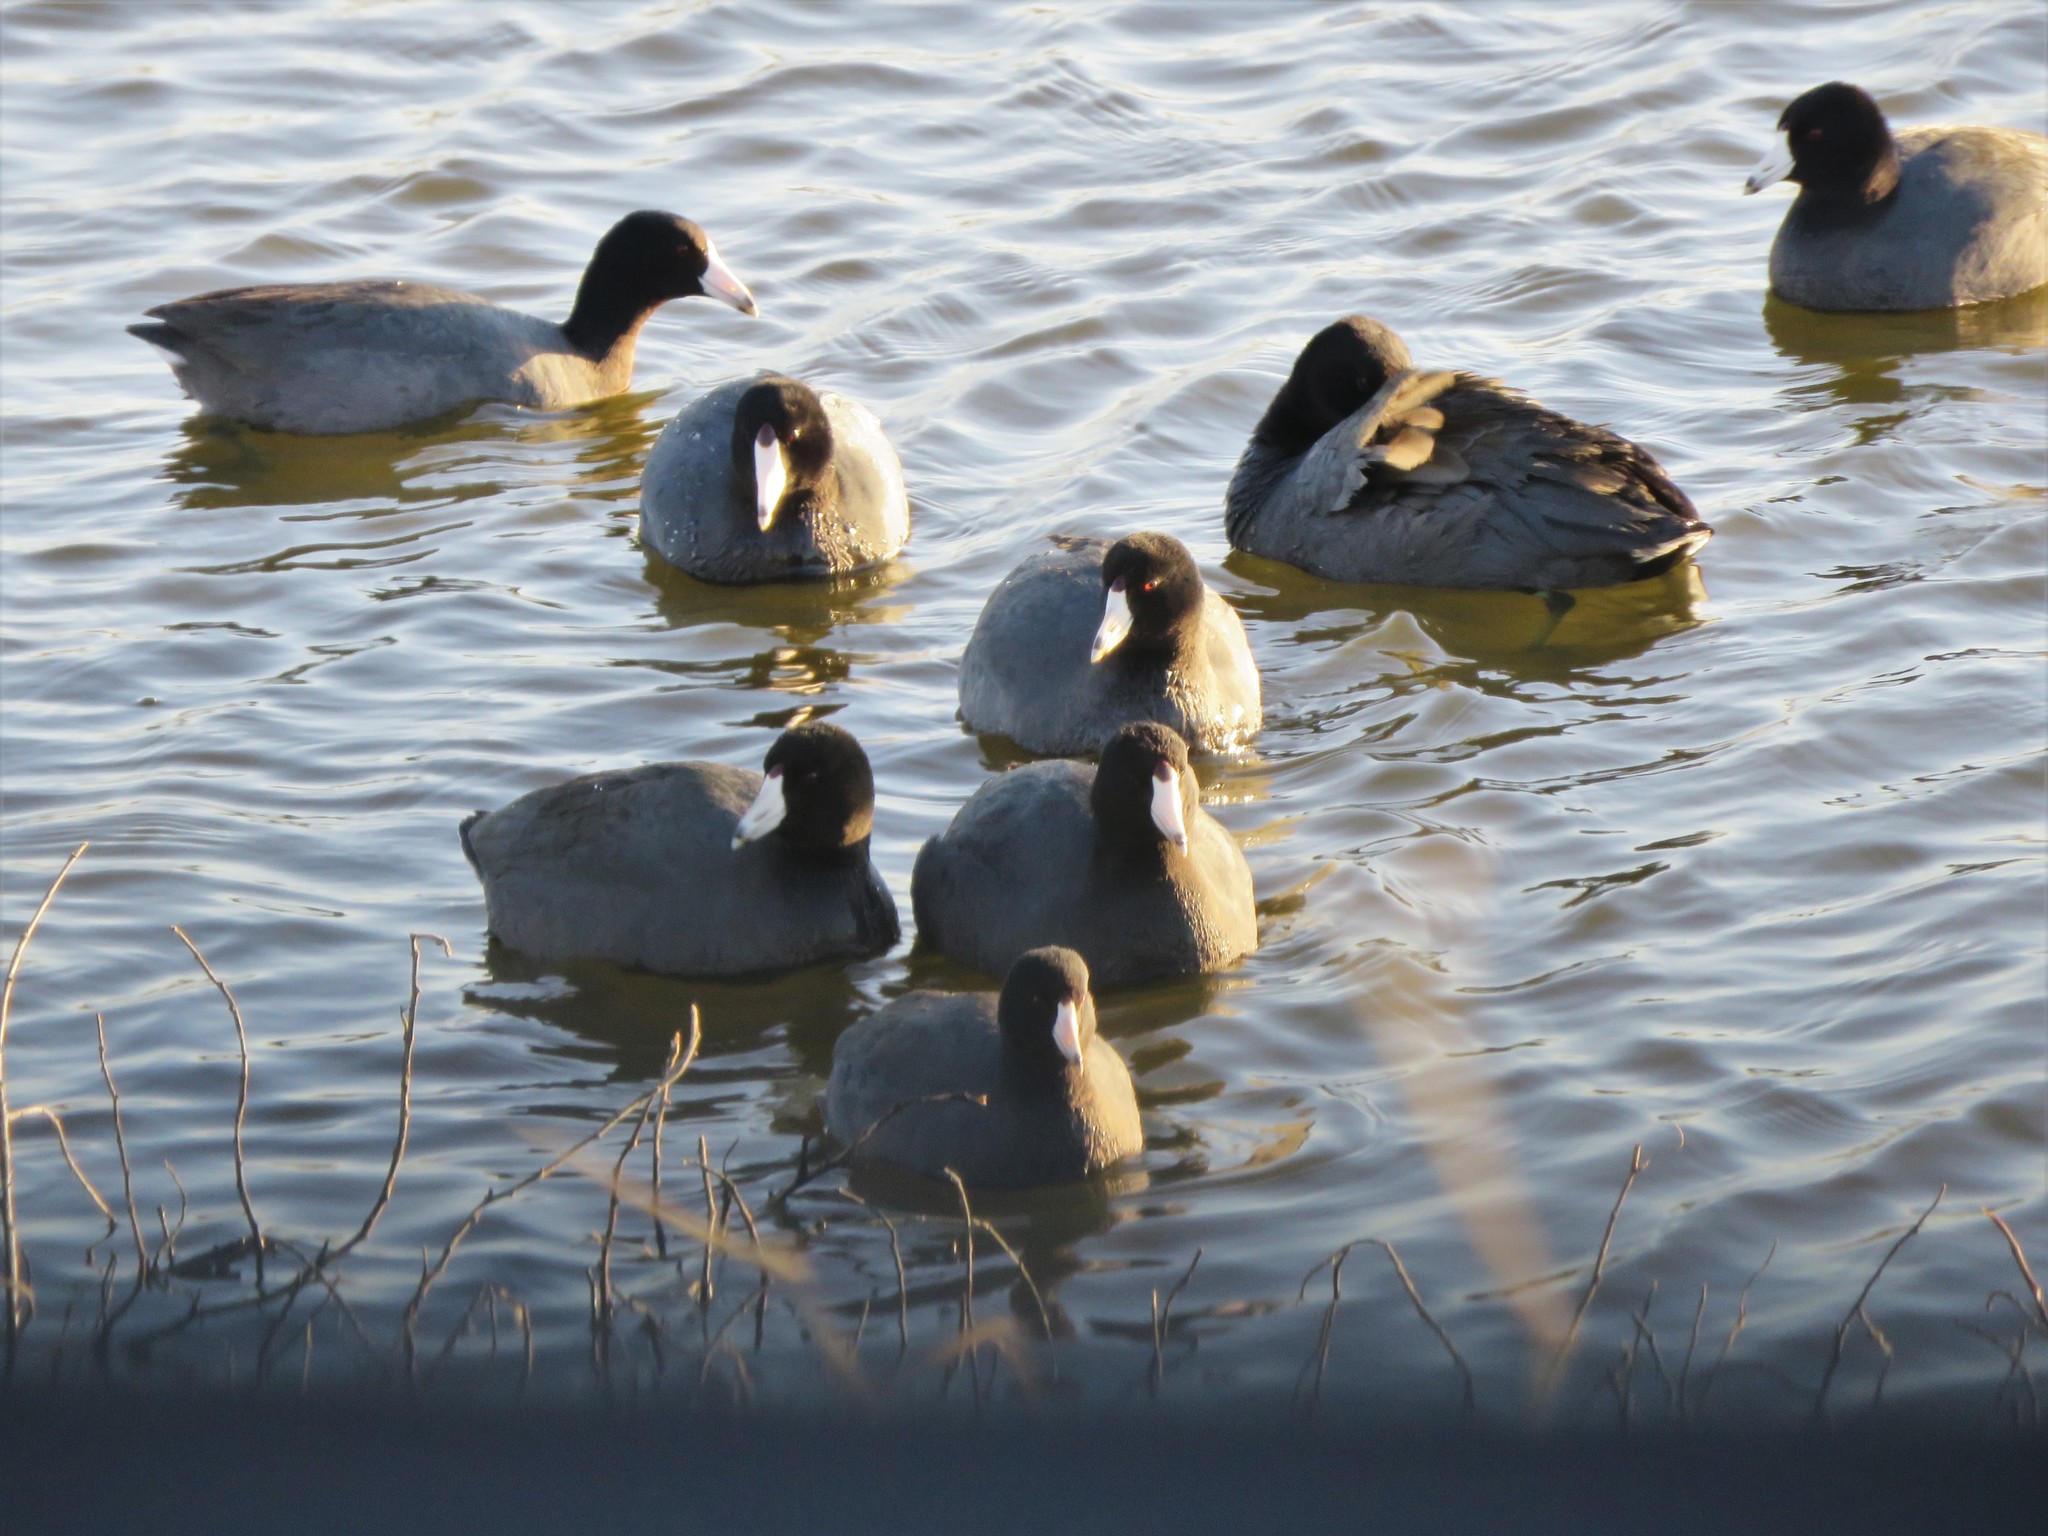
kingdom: Animalia
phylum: Chordata
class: Aves
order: Gruiformes
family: Rallidae
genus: Fulica
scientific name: Fulica americana
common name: American coot
